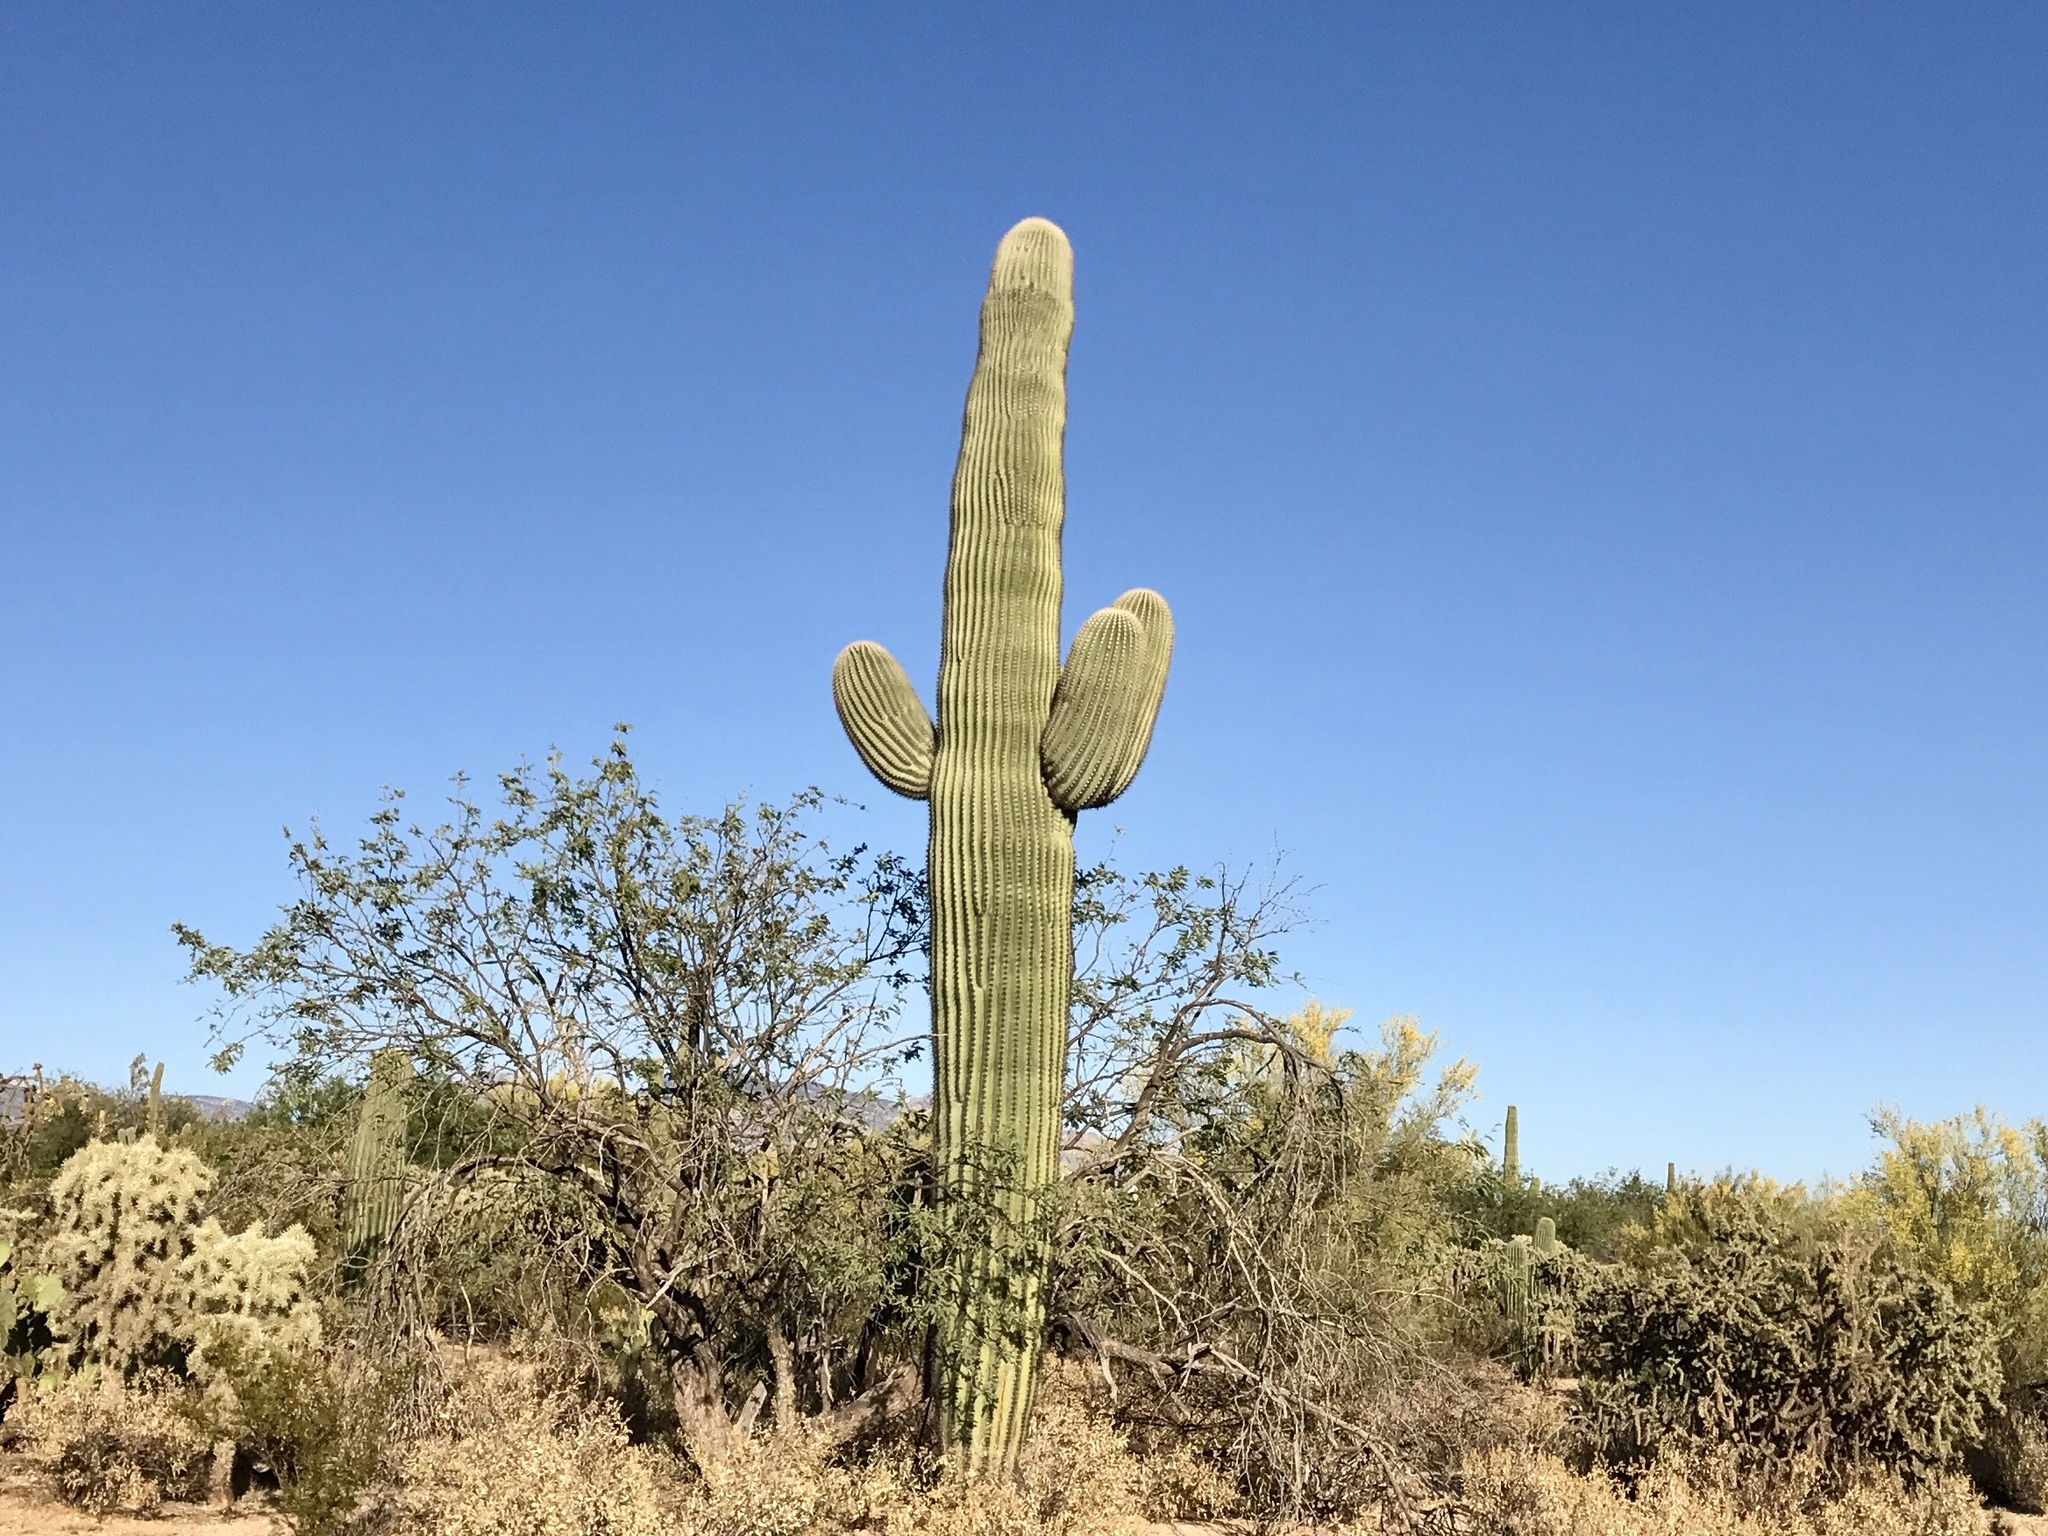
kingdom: Plantae
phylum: Tracheophyta
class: Magnoliopsida
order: Caryophyllales
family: Cactaceae
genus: Carnegiea
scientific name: Carnegiea gigantea
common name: Saguaro
